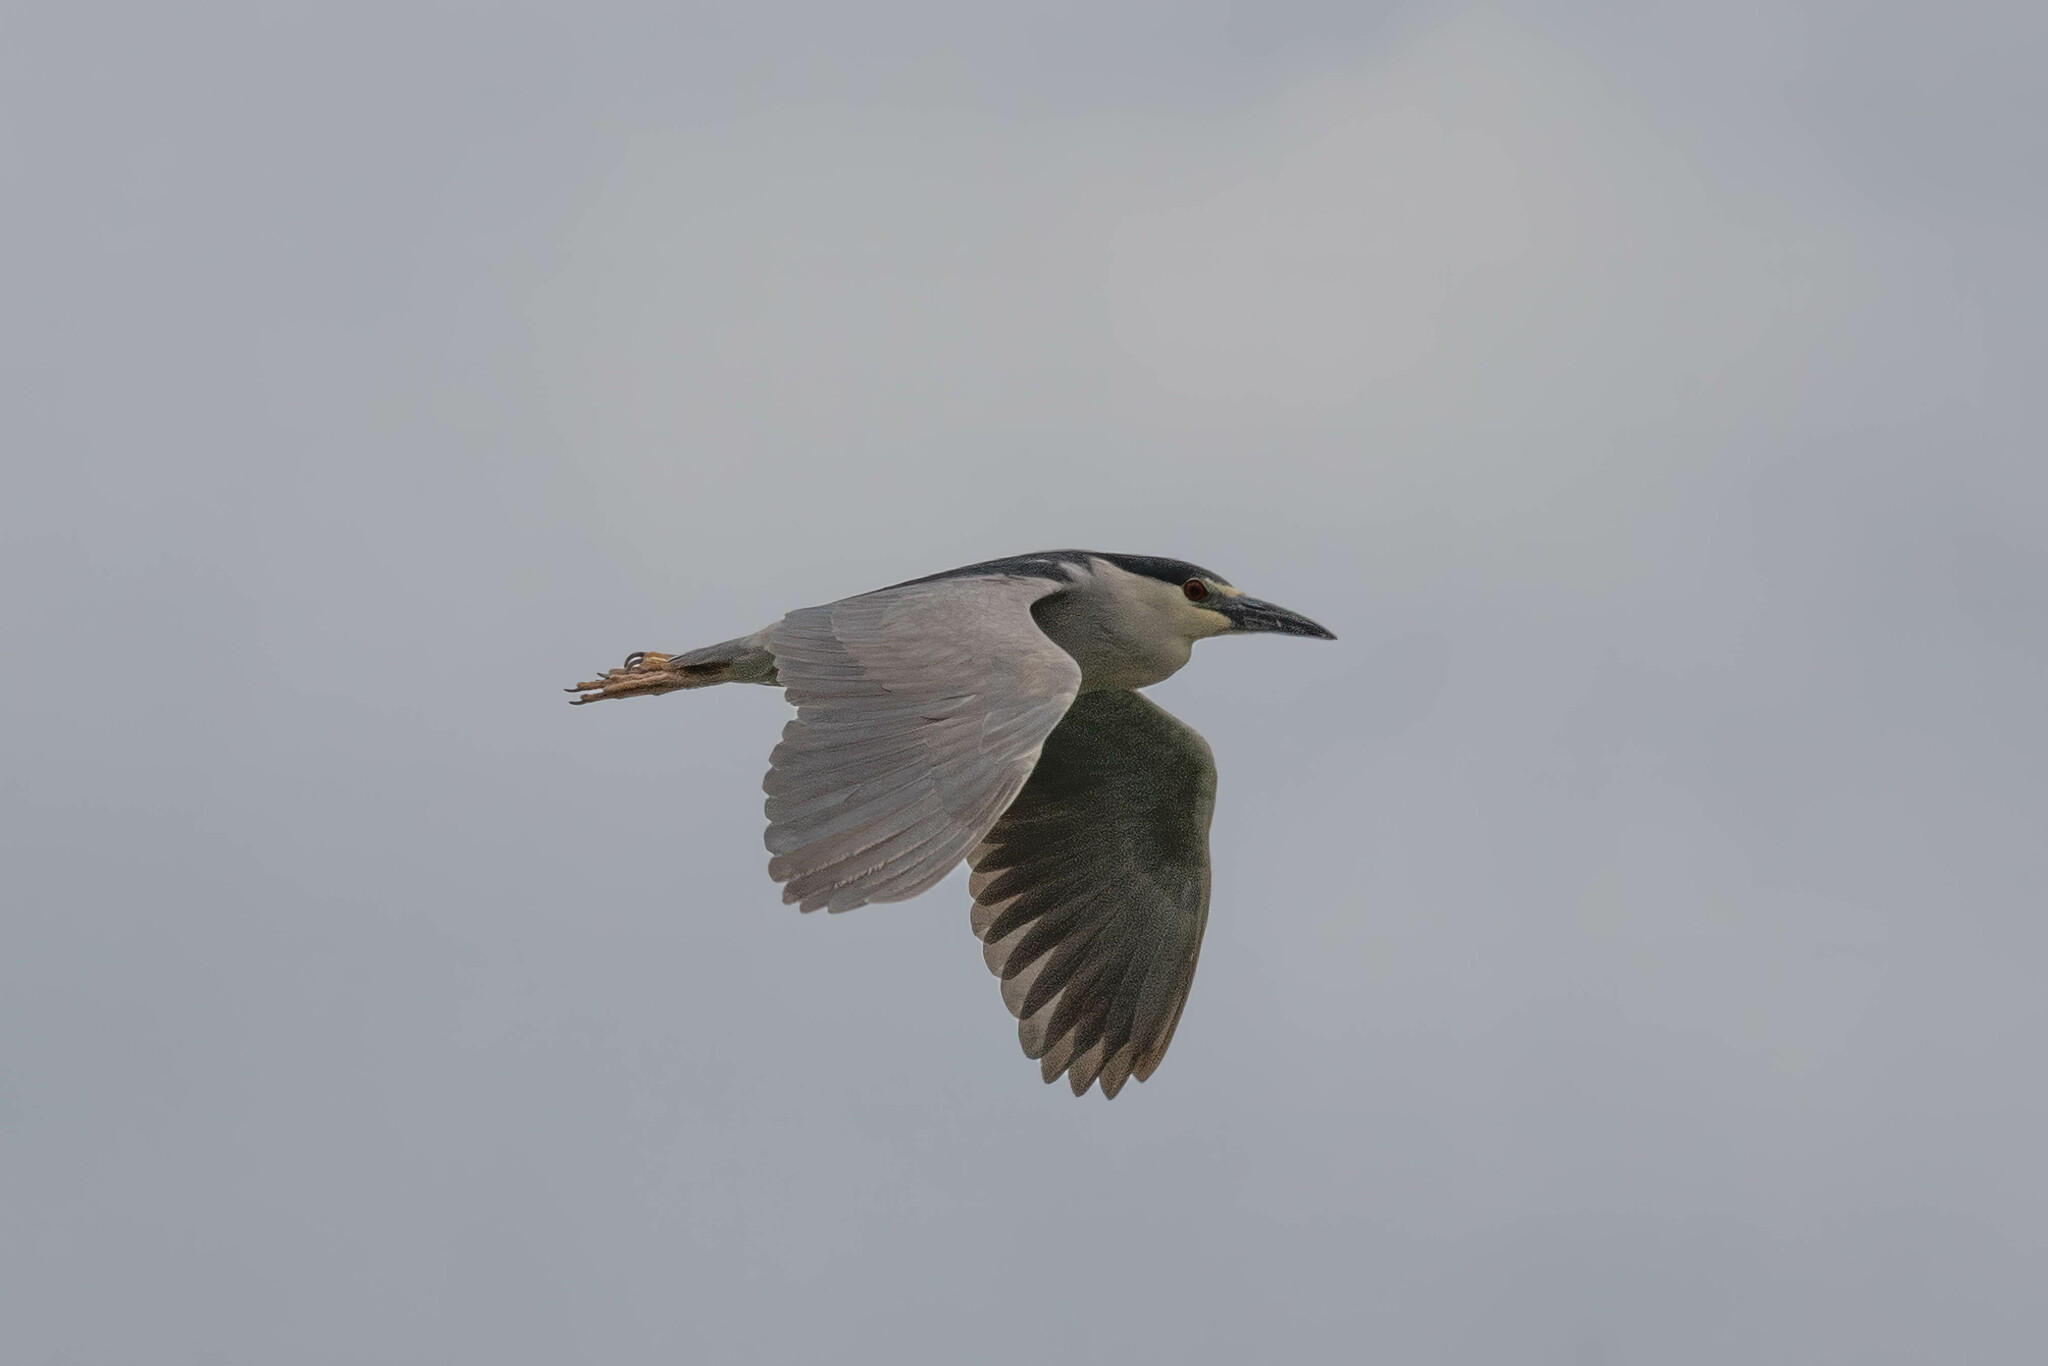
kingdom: Animalia
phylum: Chordata
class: Aves
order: Pelecaniformes
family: Ardeidae
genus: Nycticorax
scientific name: Nycticorax nycticorax
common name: Black-crowned night heron
